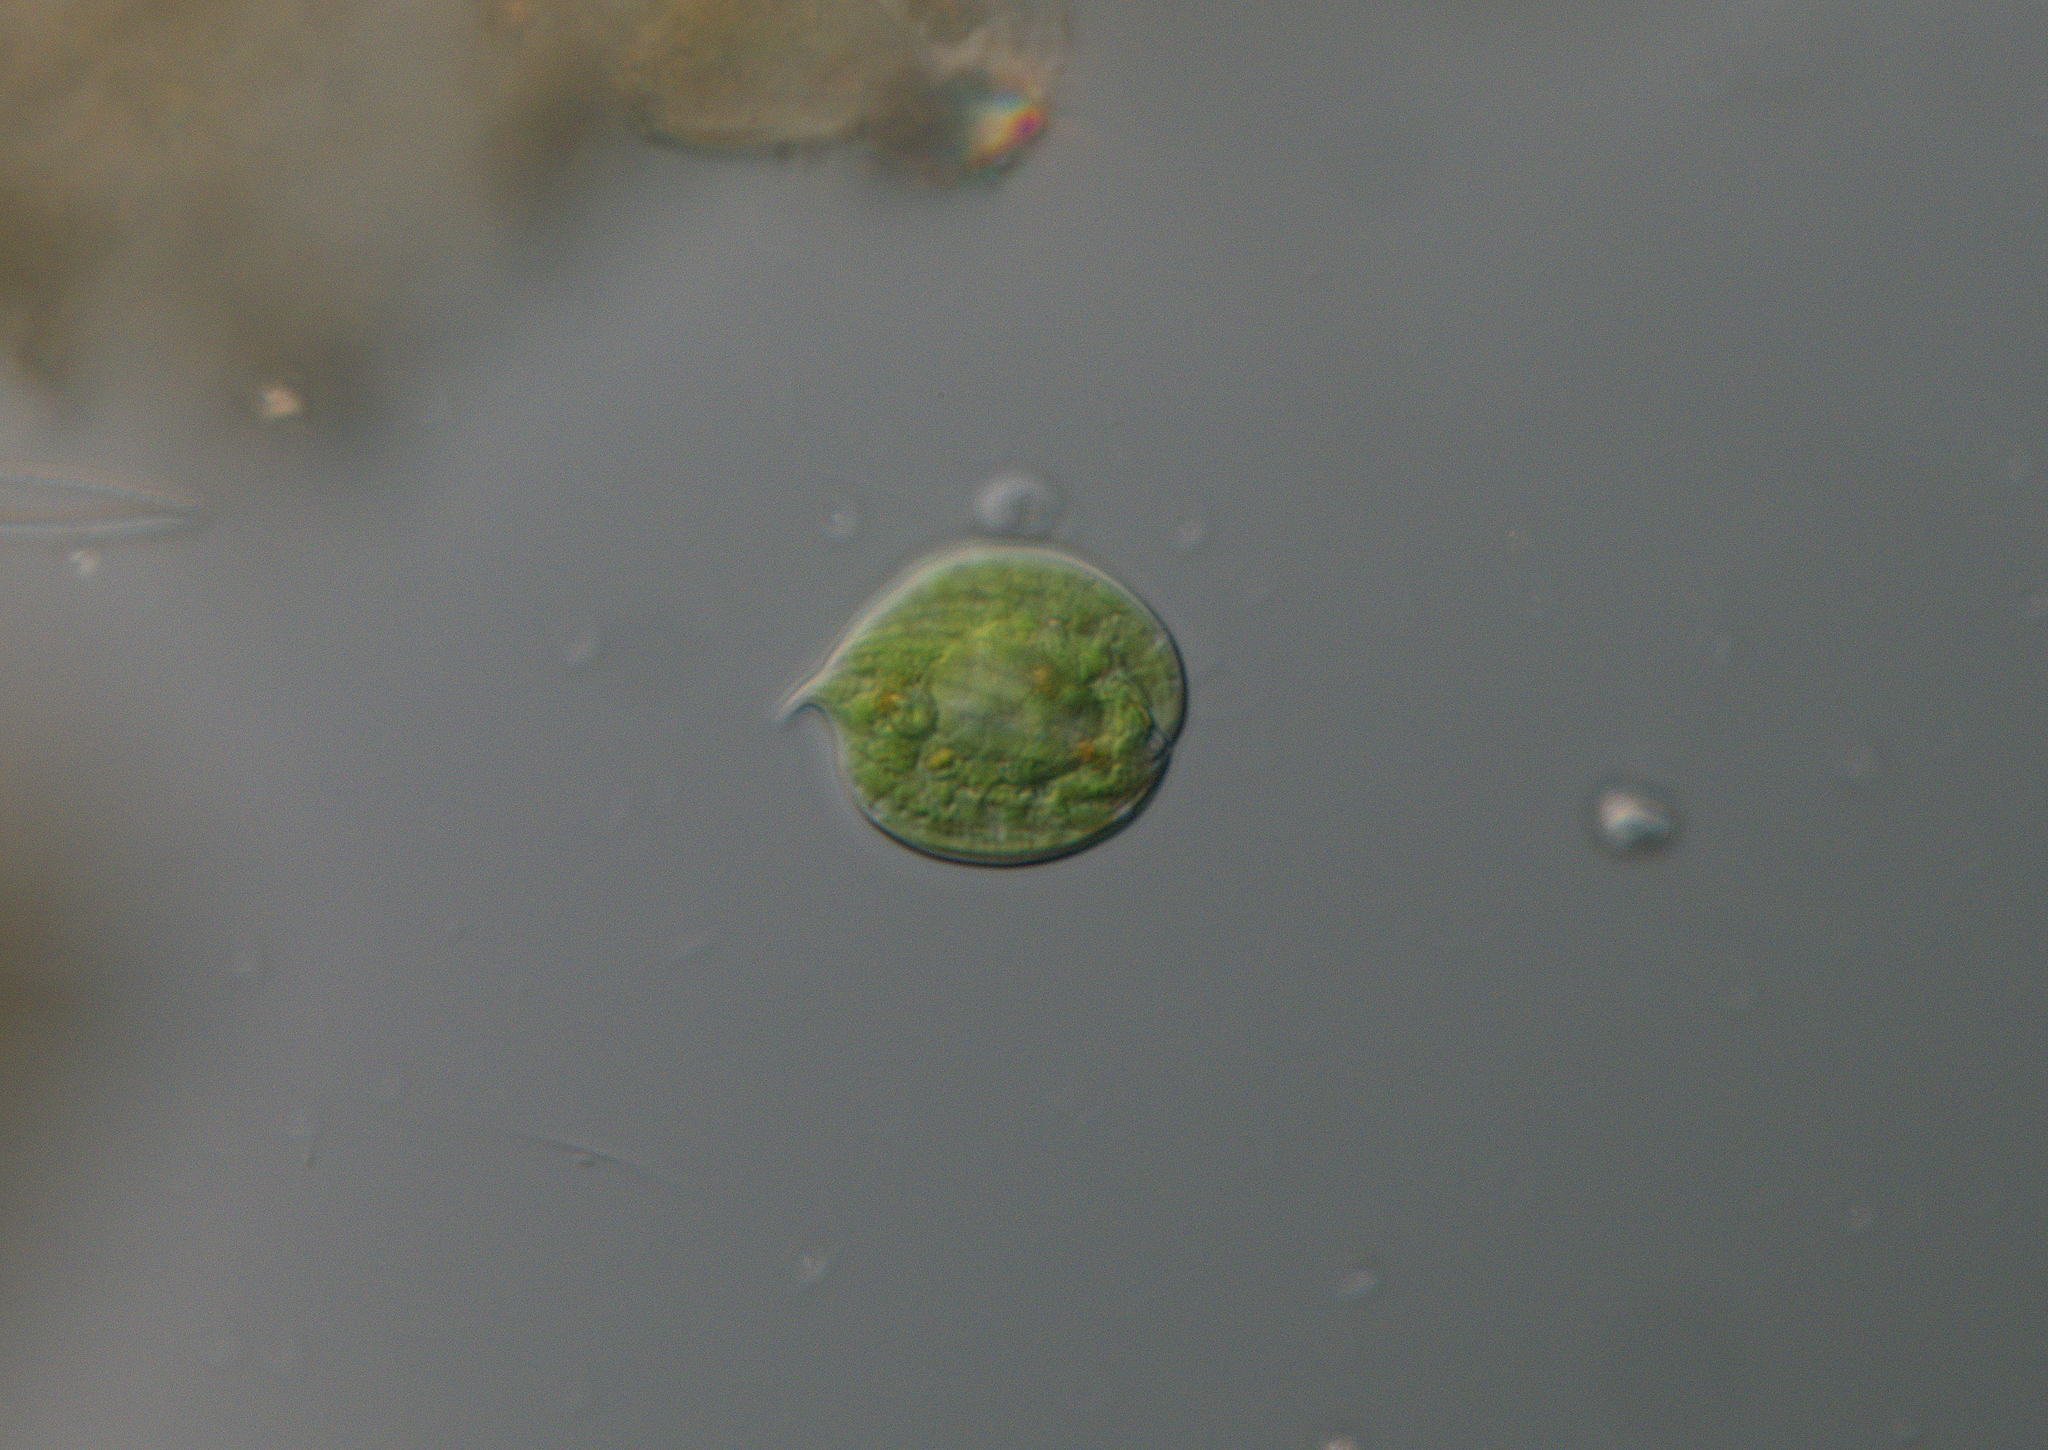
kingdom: Protozoa
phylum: Euglenozoa
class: Euglenoidea
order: Euglenida
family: Phacidae
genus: Phacus
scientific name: Phacus orbicularis
